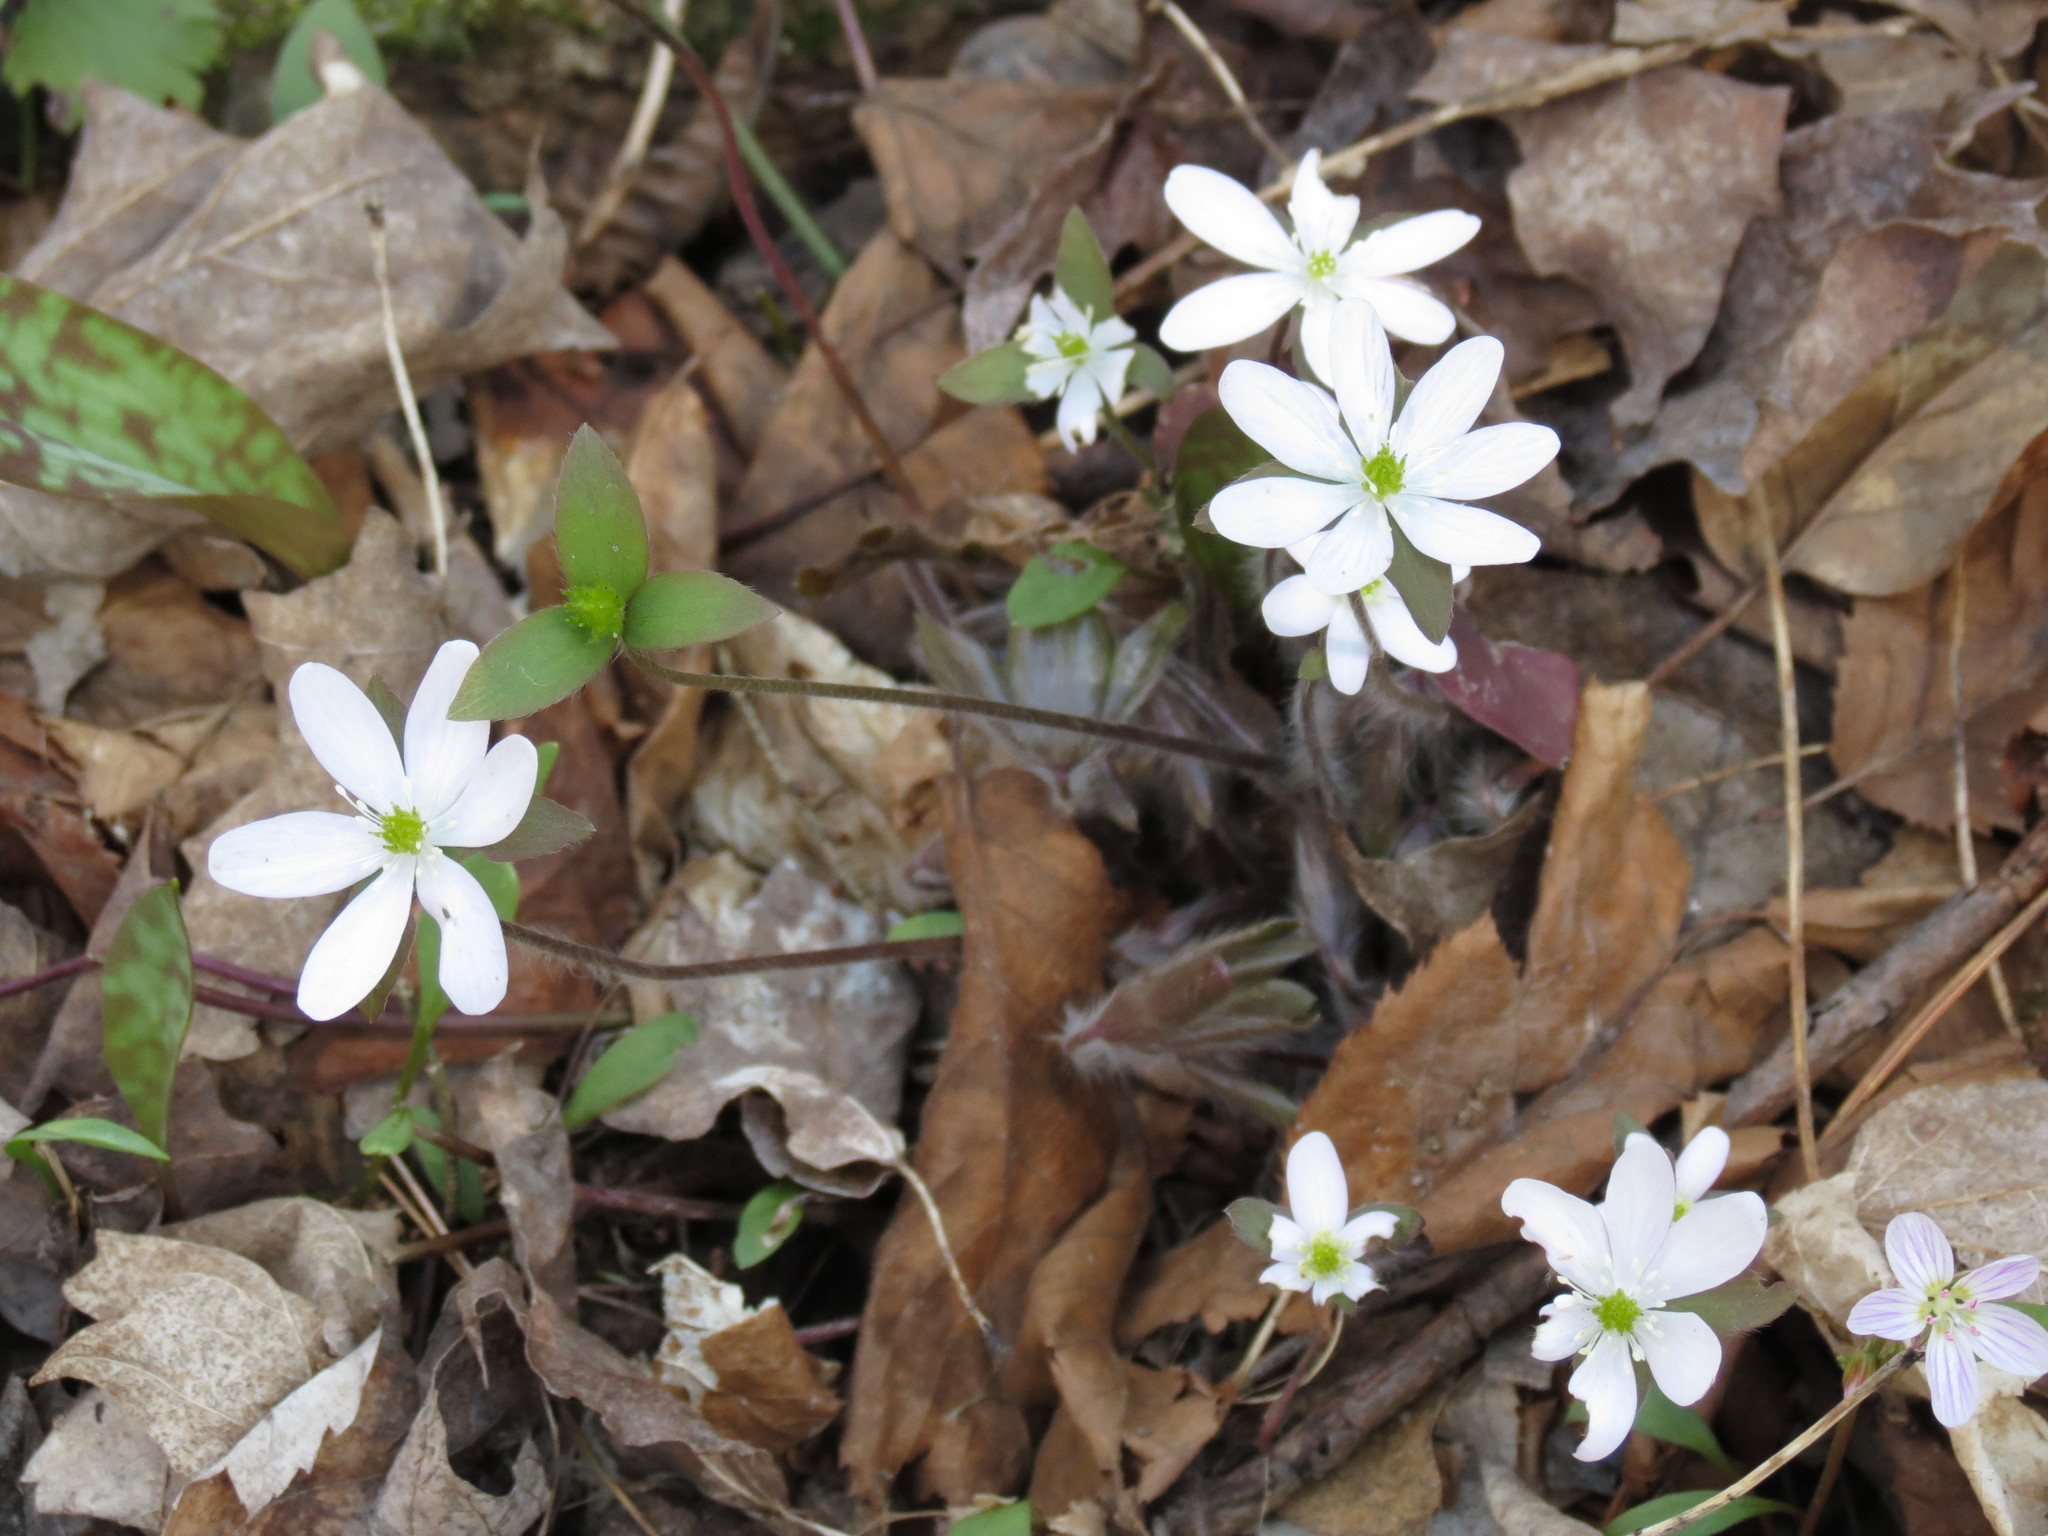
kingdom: Plantae
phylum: Tracheophyta
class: Magnoliopsida
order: Ranunculales
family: Ranunculaceae
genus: Hepatica
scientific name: Hepatica acutiloba
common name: Sharp-lobed hepatica
